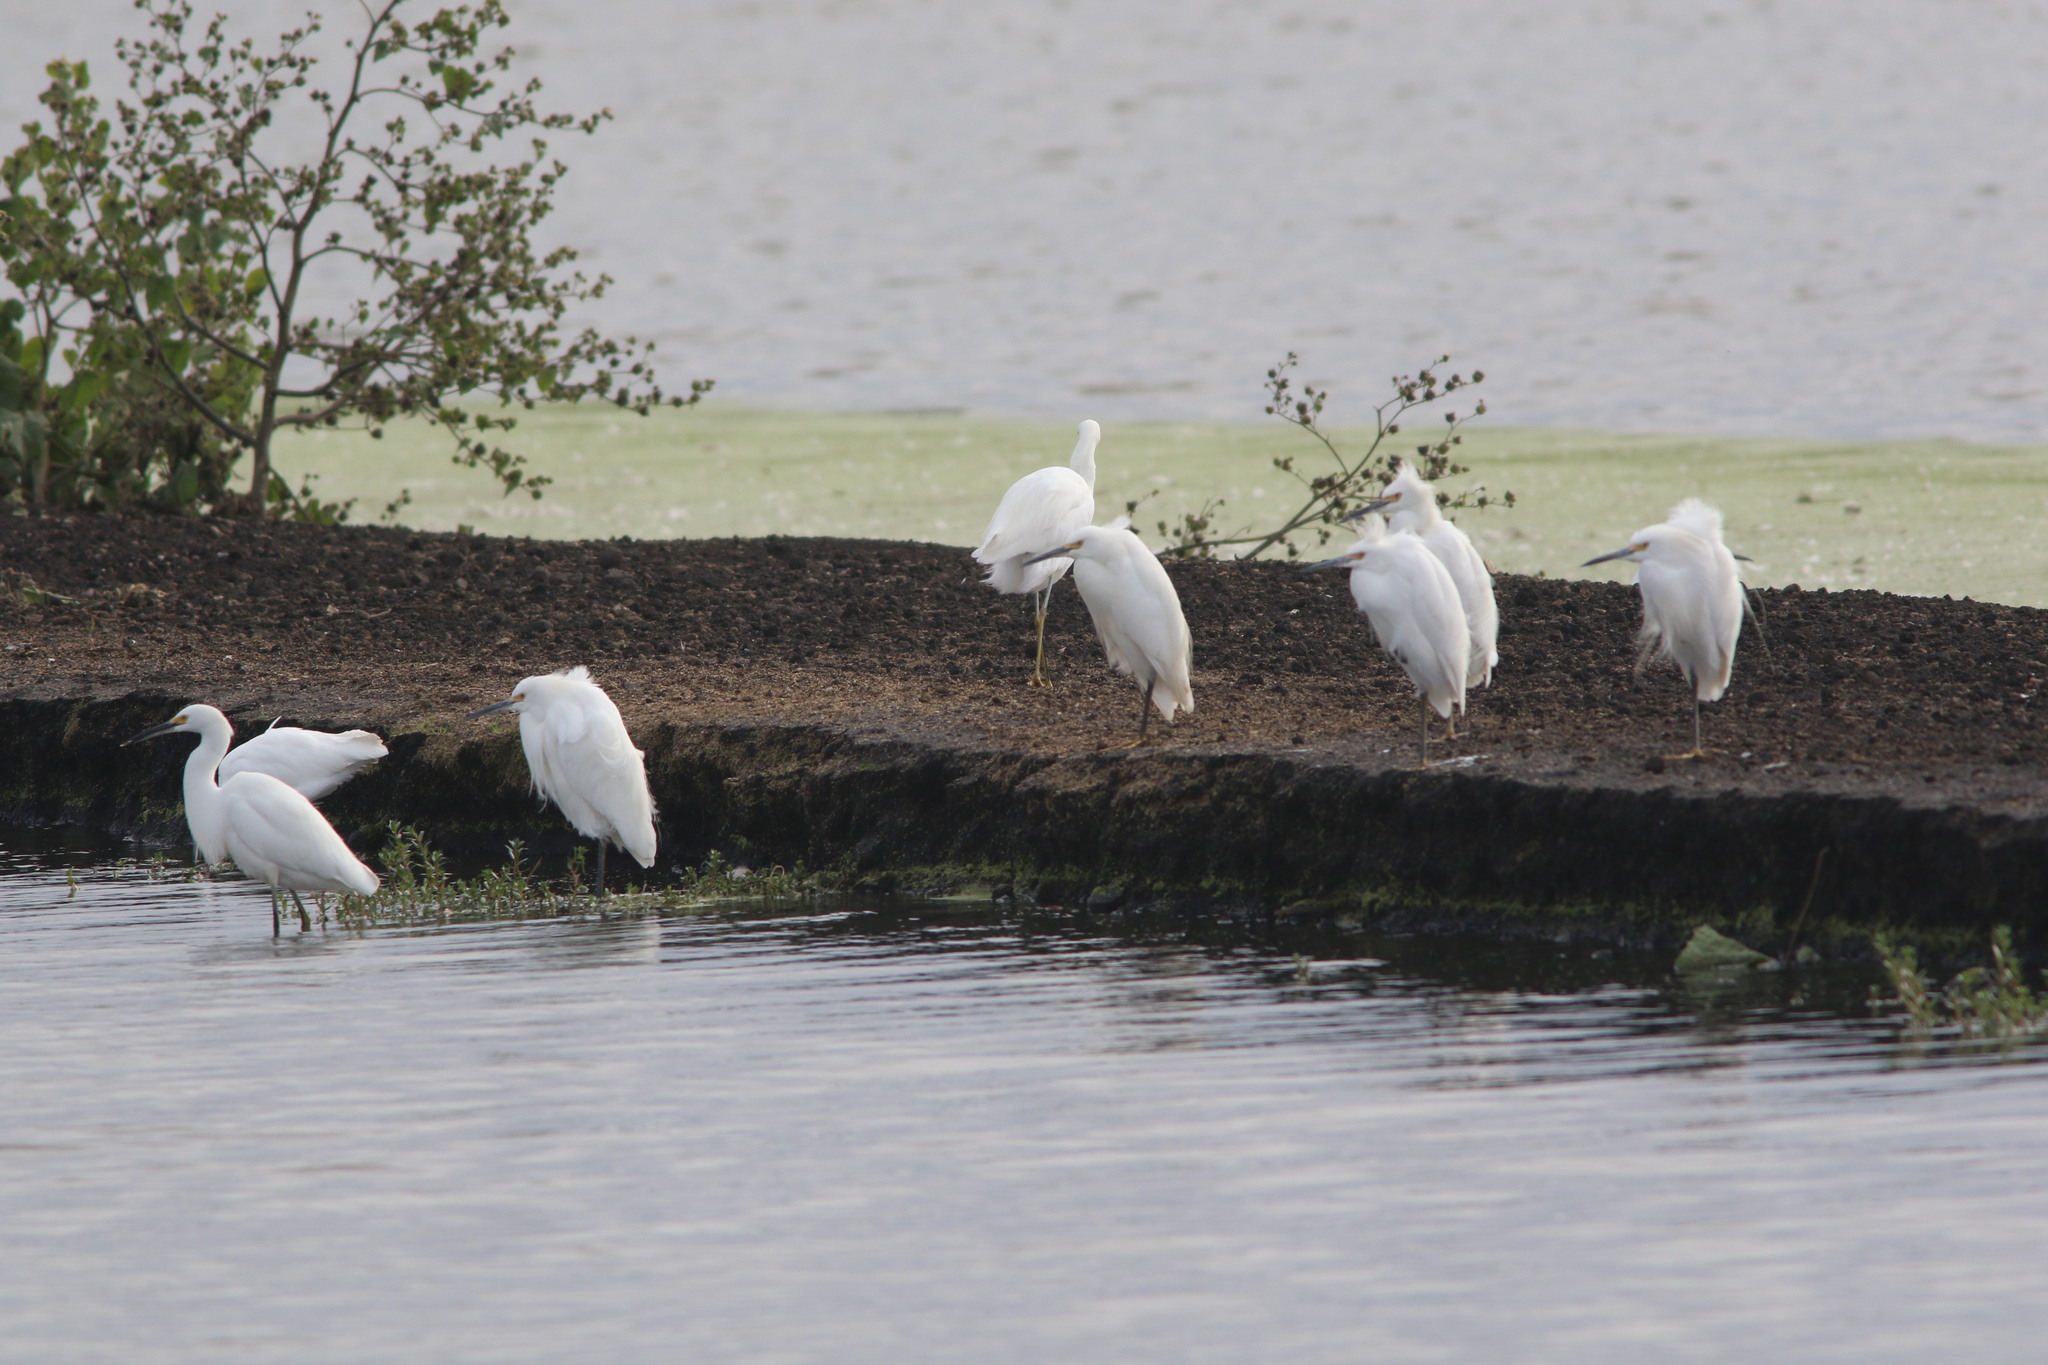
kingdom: Animalia
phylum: Chordata
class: Aves
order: Pelecaniformes
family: Ardeidae
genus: Egretta
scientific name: Egretta thula
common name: Snowy egret
